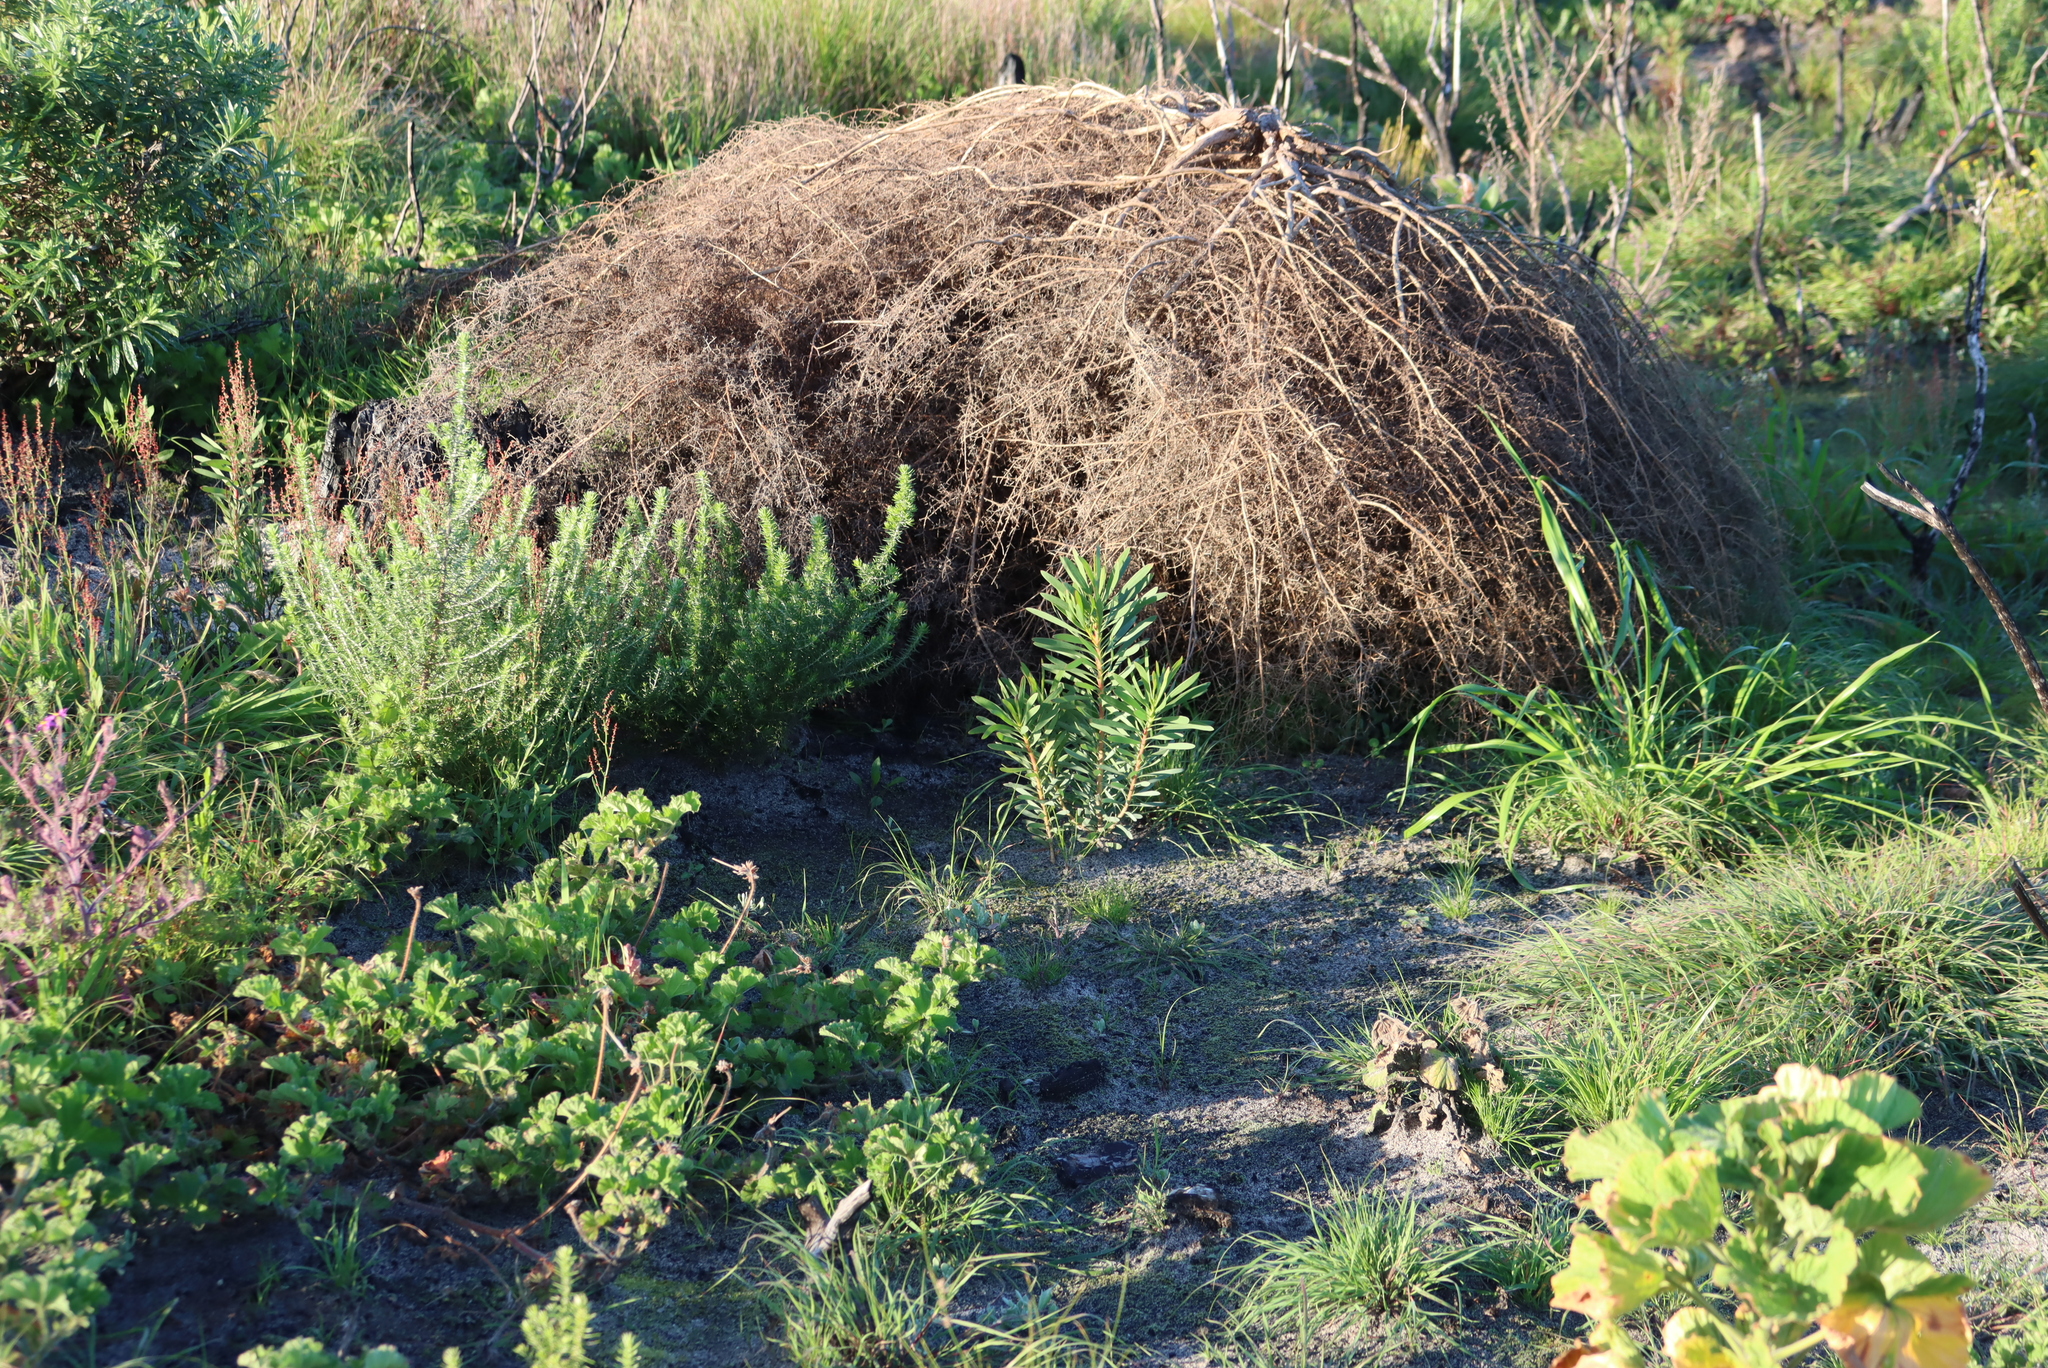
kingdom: Plantae
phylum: Tracheophyta
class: Magnoliopsida
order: Asterales
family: Asteraceae
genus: Seriphium
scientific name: Seriphium plumosum
